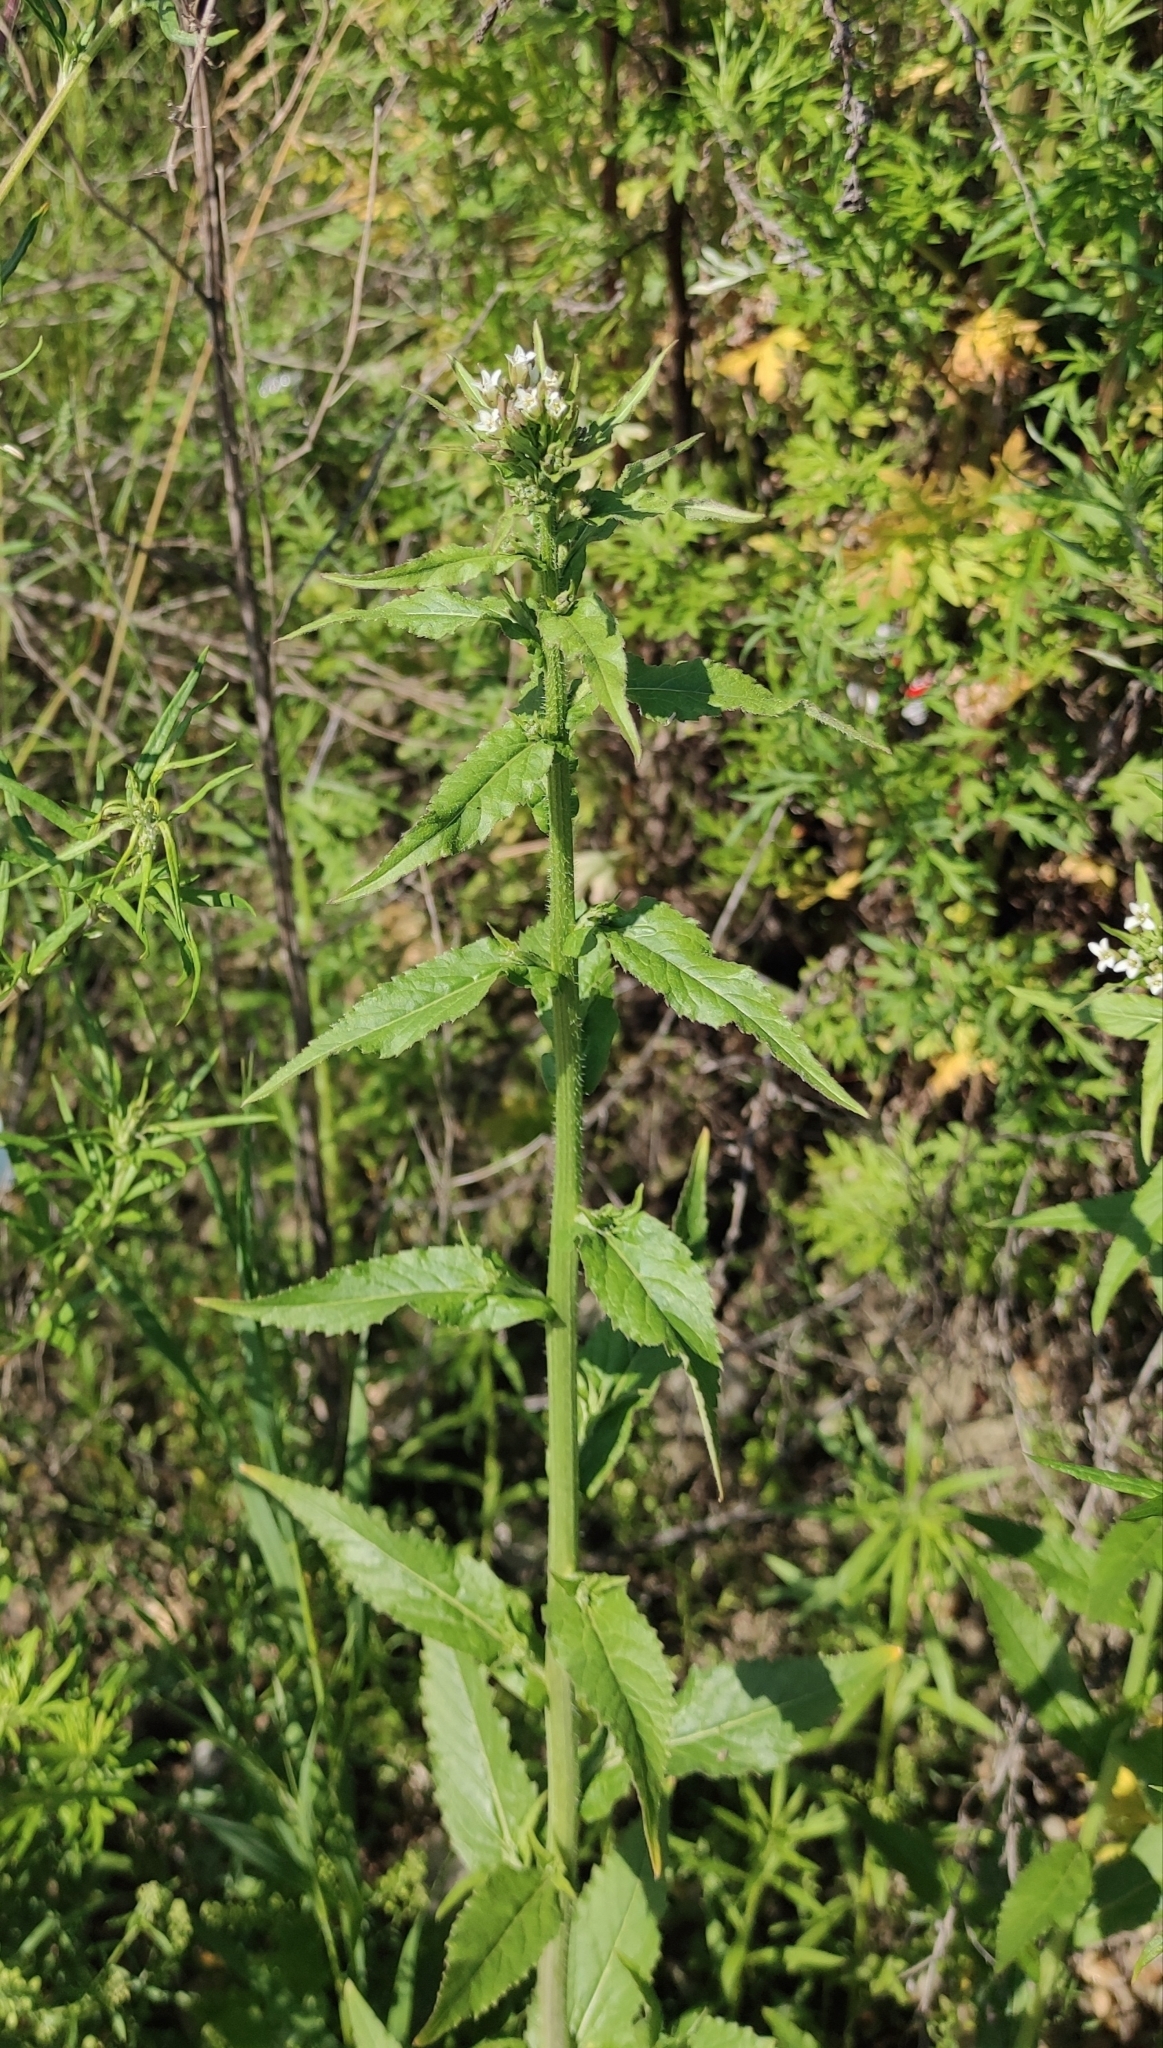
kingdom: Plantae
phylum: Tracheophyta
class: Magnoliopsida
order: Brassicales
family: Brassicaceae
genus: Catolobus
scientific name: Catolobus pendulus
